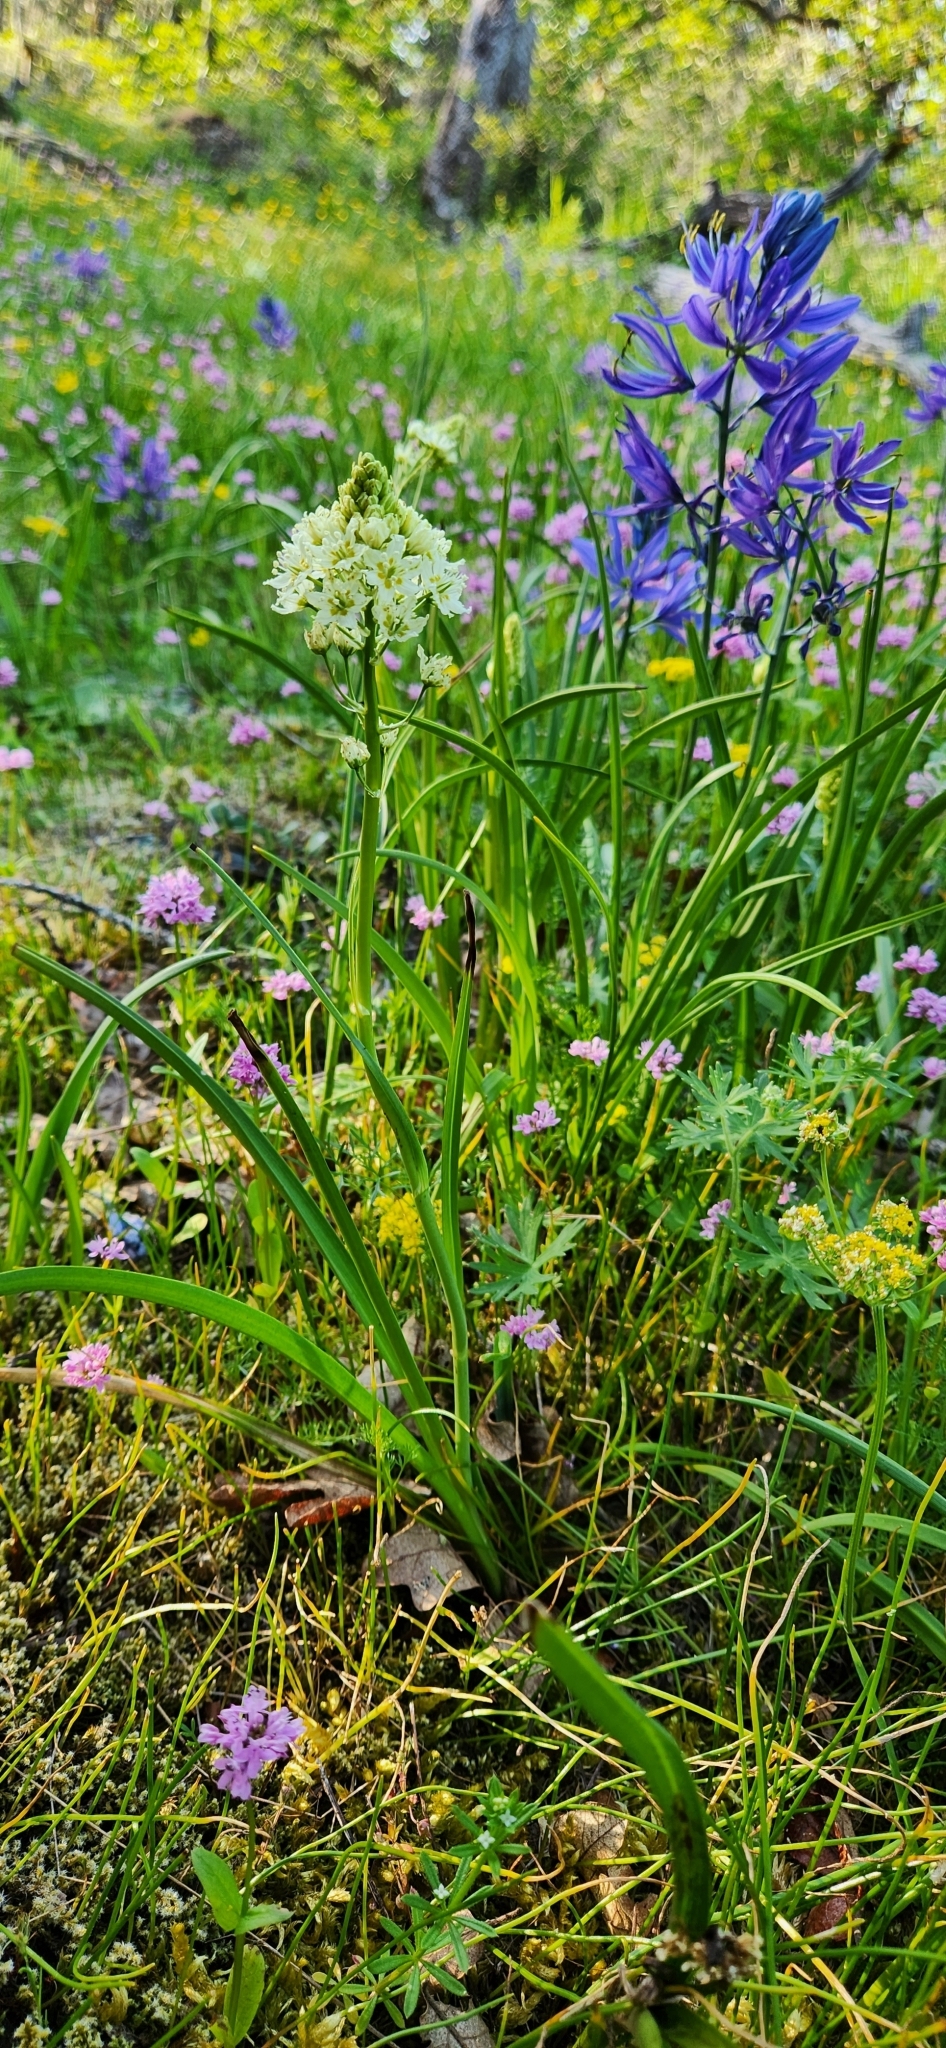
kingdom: Plantae
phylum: Tracheophyta
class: Liliopsida
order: Liliales
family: Melanthiaceae
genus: Toxicoscordion
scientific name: Toxicoscordion venenosum
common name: Meadow death camas
